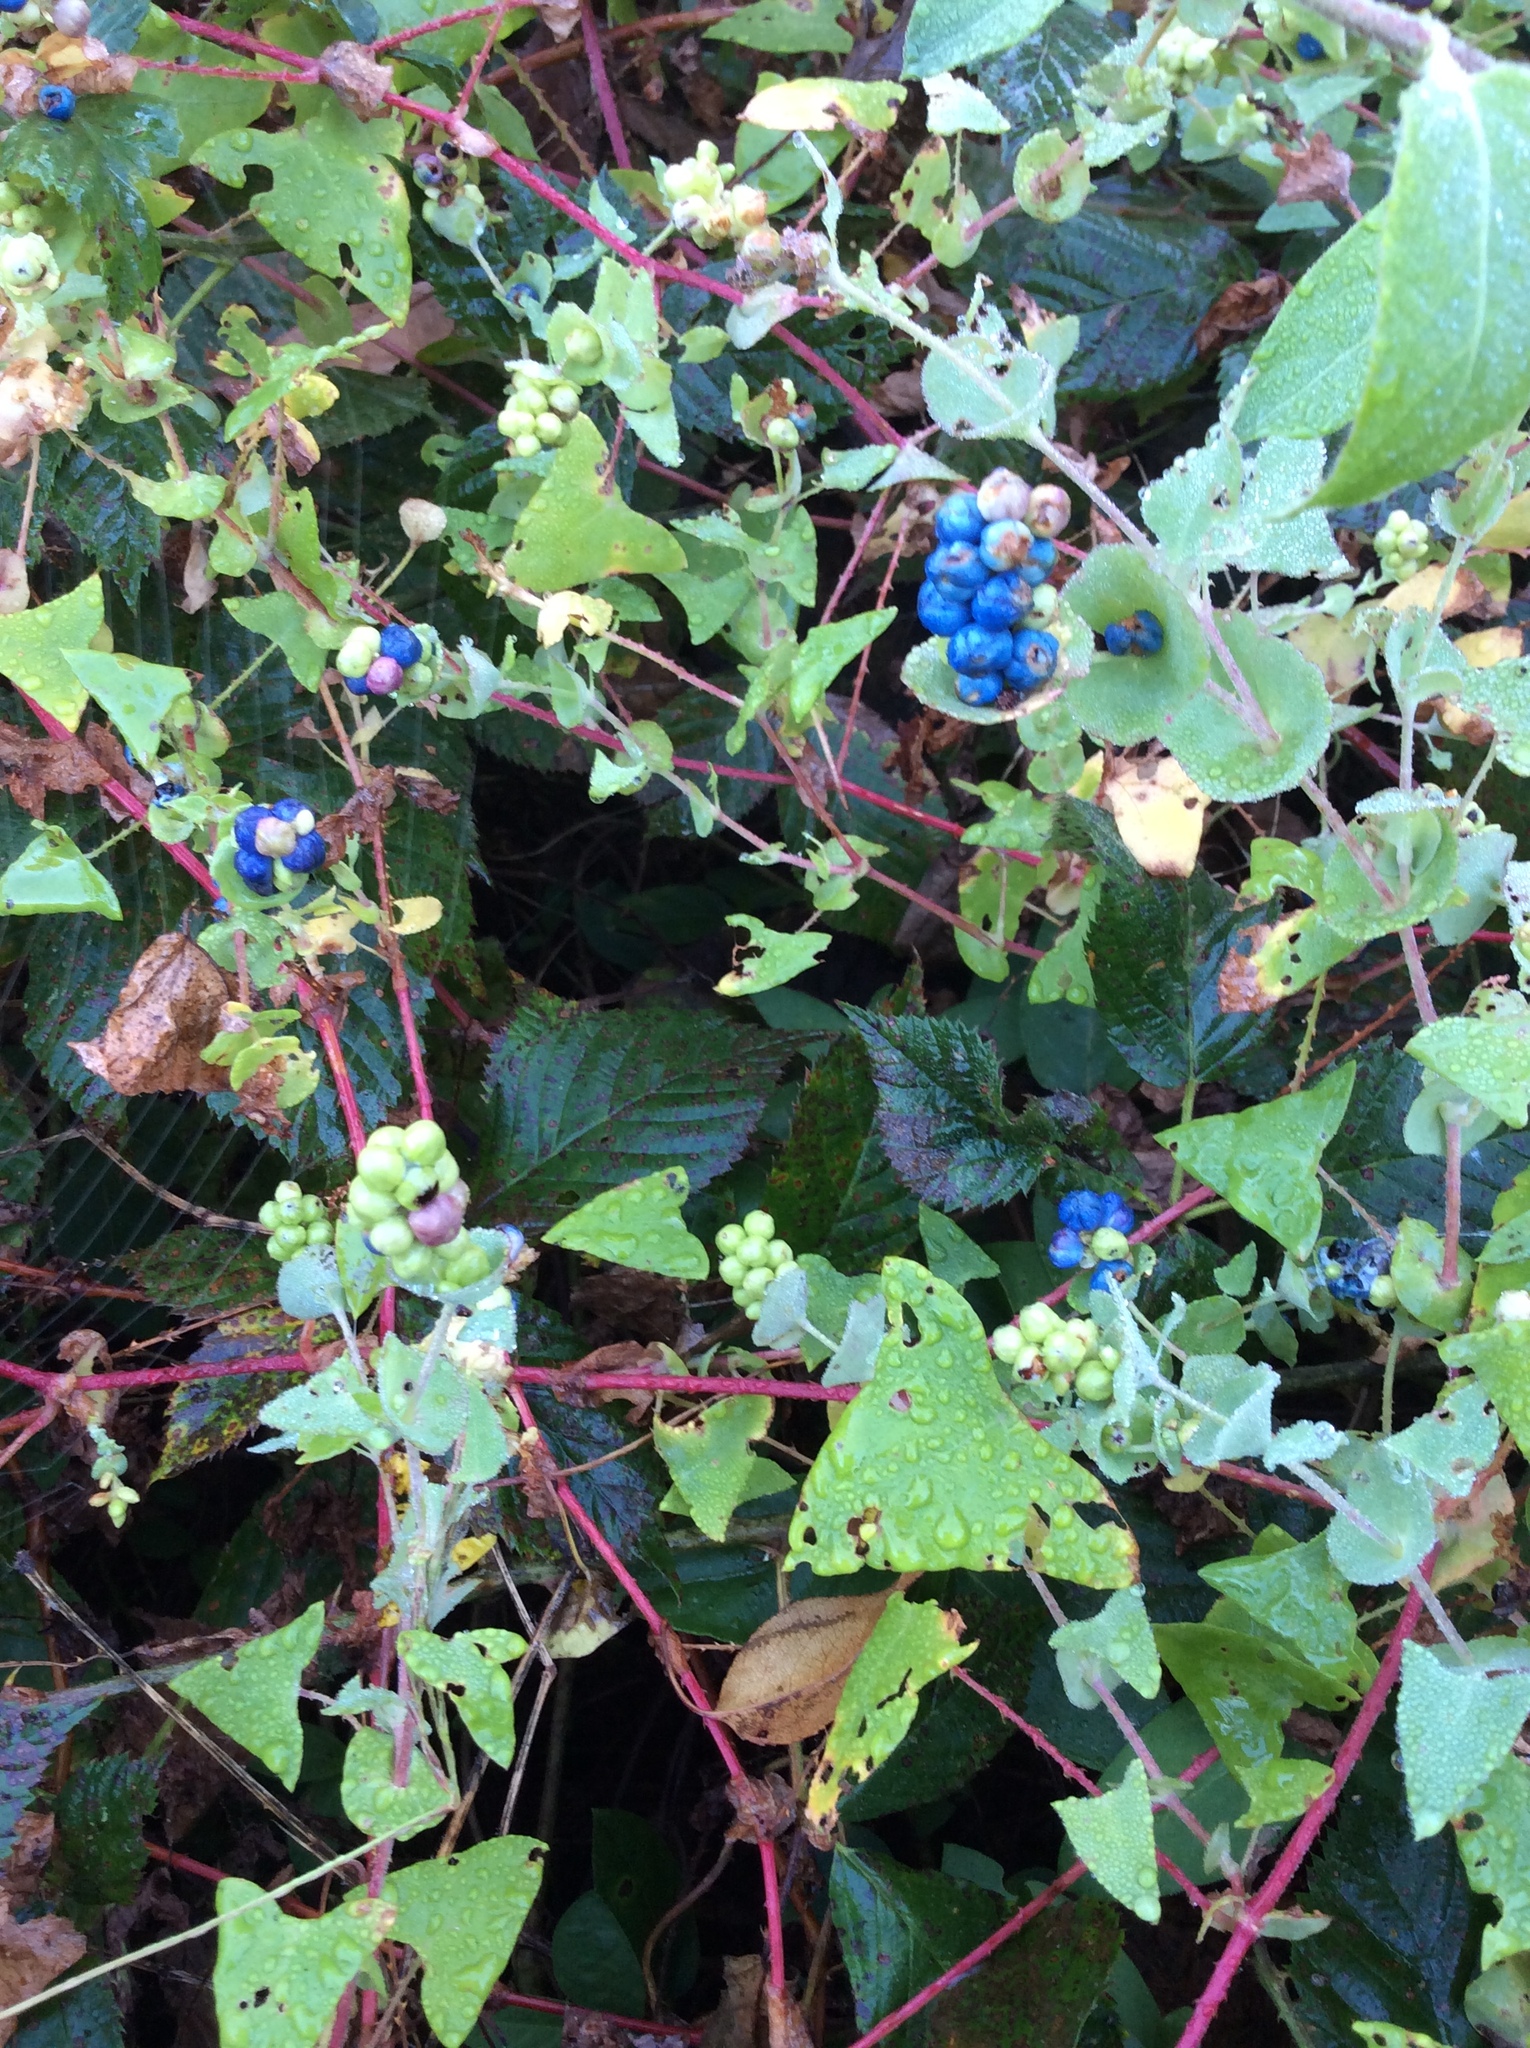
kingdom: Plantae
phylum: Tracheophyta
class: Magnoliopsida
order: Caryophyllales
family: Polygonaceae
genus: Persicaria
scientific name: Persicaria perfoliata
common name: Asiatic tearthumb
